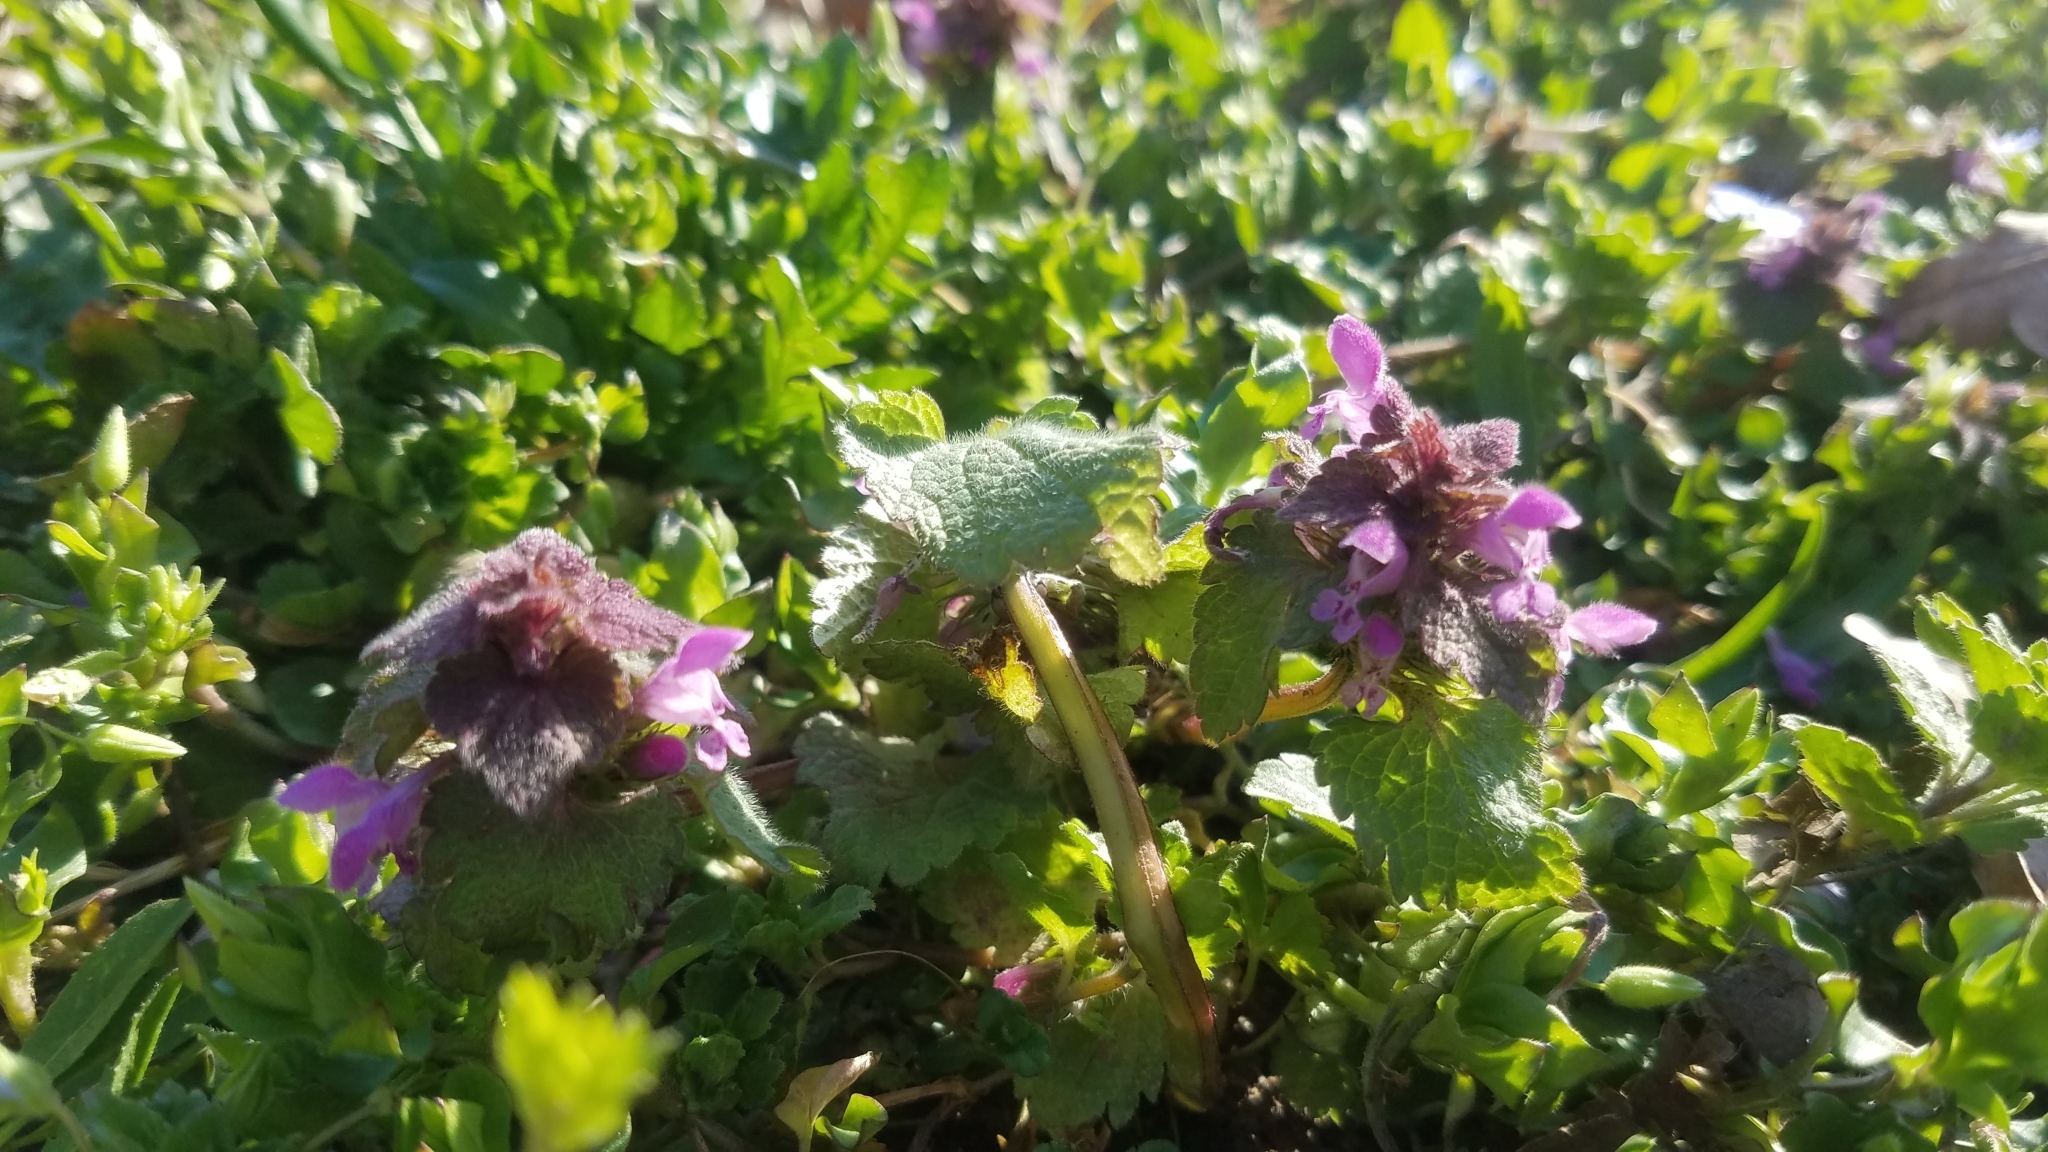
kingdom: Plantae
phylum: Tracheophyta
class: Magnoliopsida
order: Lamiales
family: Lamiaceae
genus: Lamium
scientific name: Lamium purpureum
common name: Red dead-nettle
